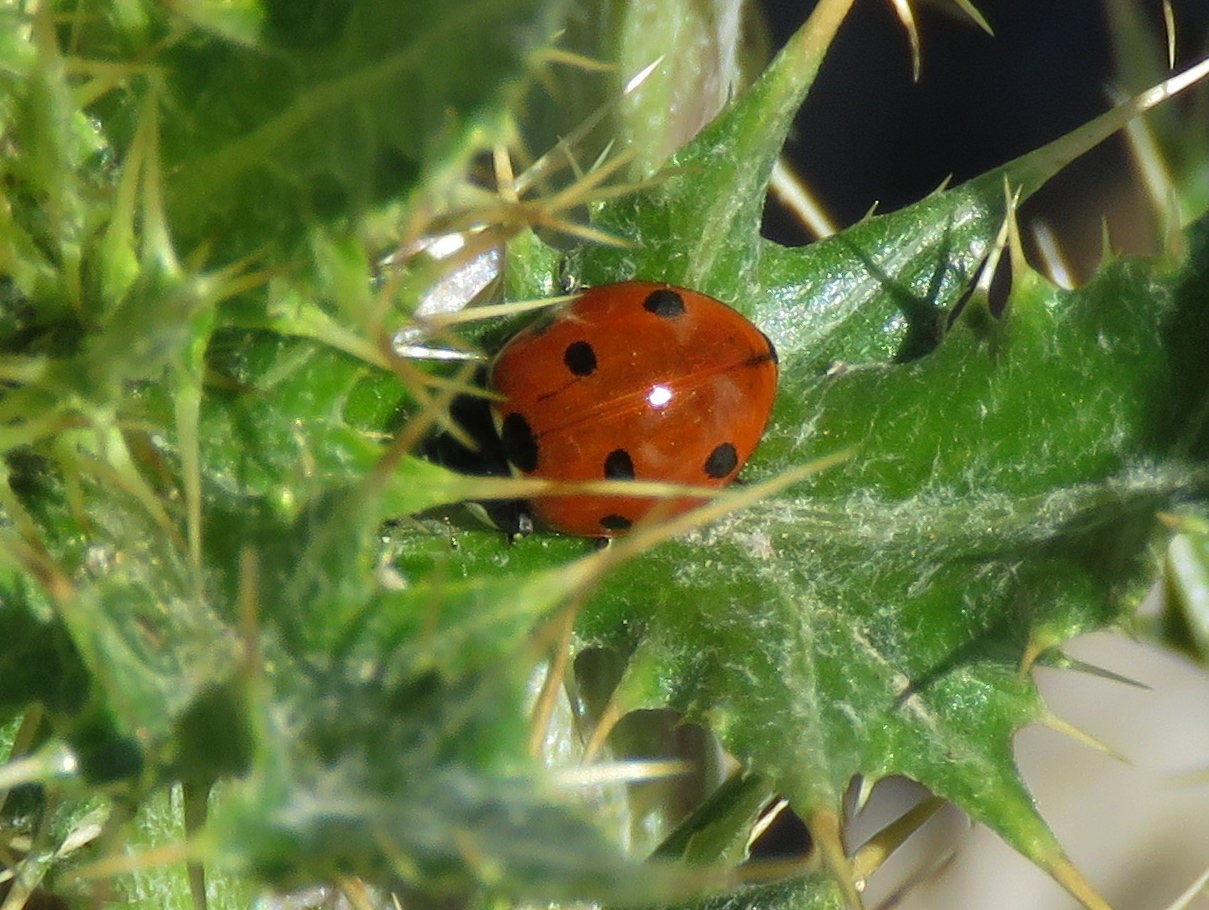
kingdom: Animalia
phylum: Arthropoda
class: Insecta
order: Coleoptera
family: Coccinellidae
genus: Coccinella
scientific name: Coccinella septempunctata
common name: Sevenspotted lady beetle
